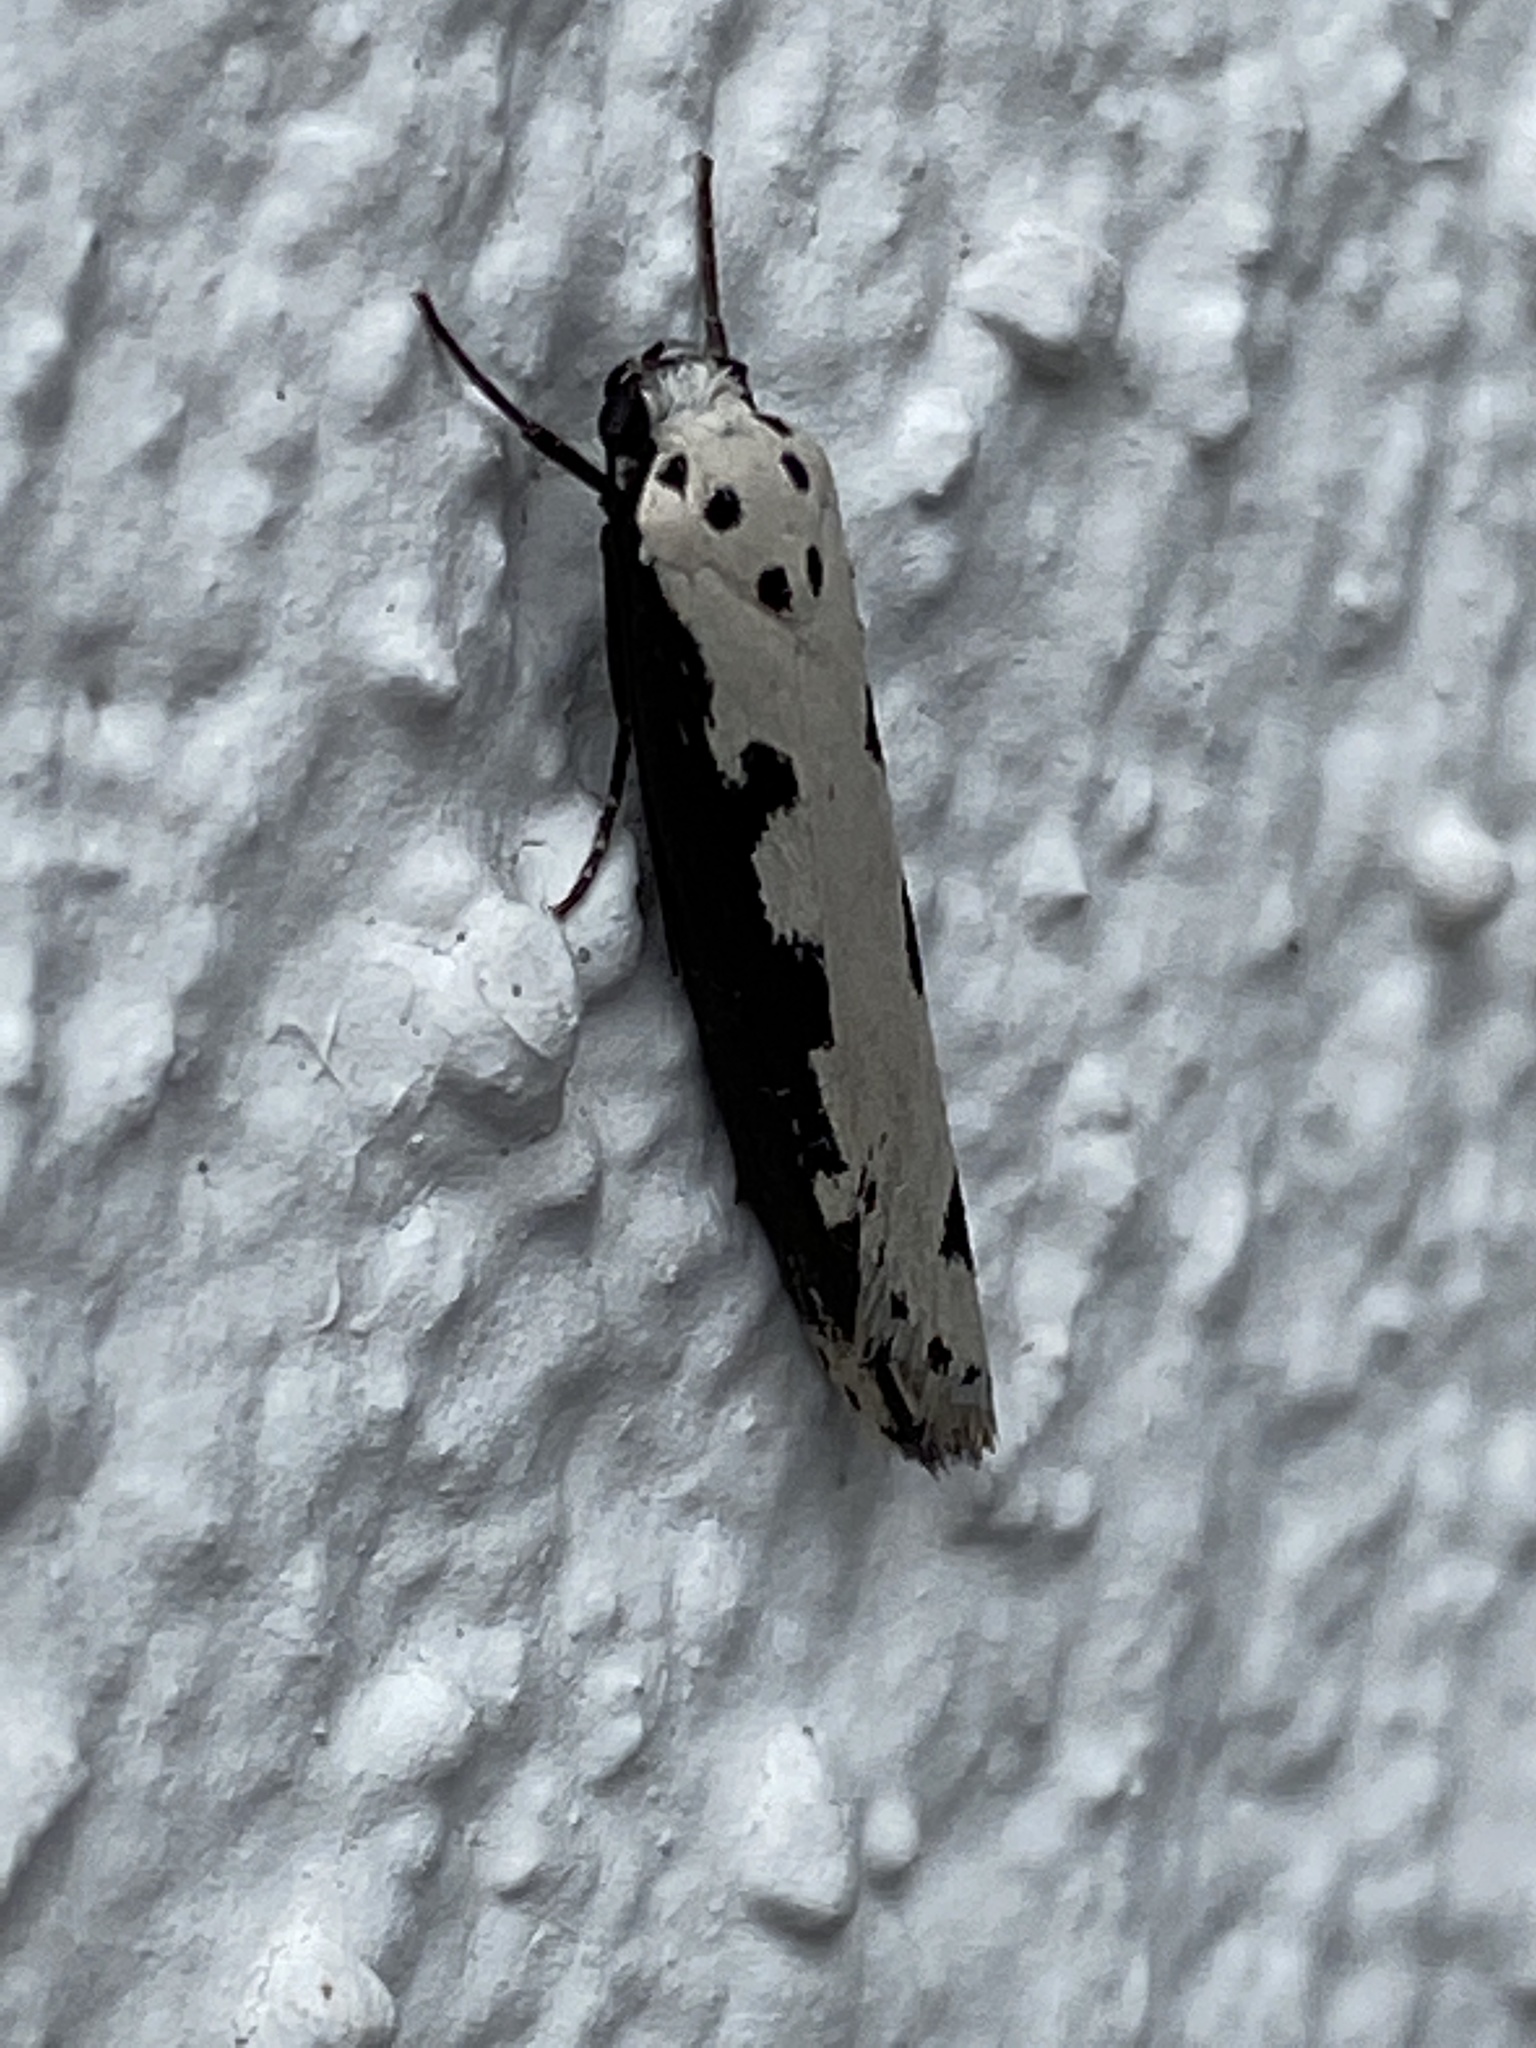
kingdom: Animalia
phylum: Arthropoda
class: Insecta
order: Lepidoptera
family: Ethmiidae
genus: Ethmia
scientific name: Ethmia bipunctella
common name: Bordered ermel
